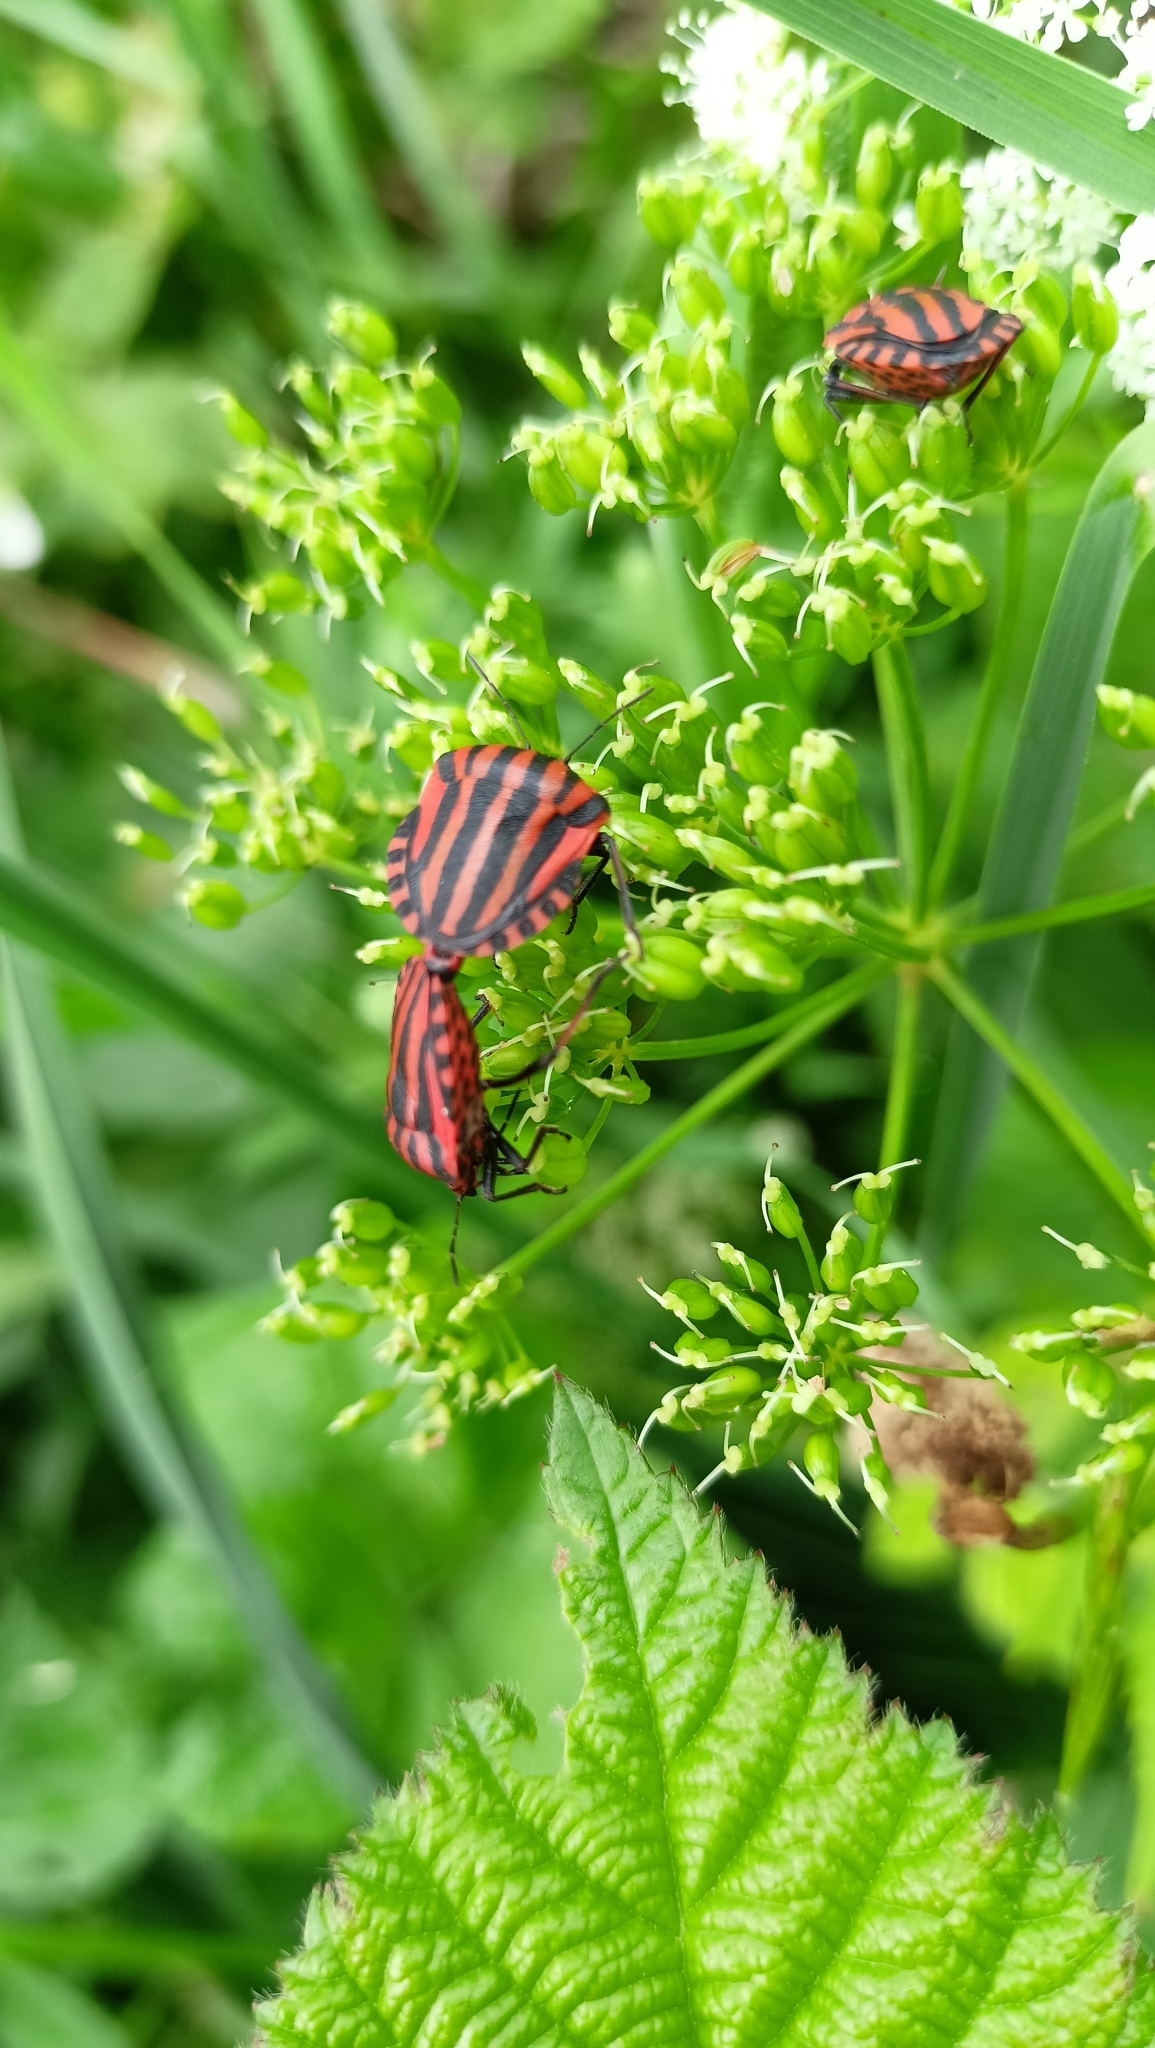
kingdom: Animalia
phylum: Arthropoda
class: Insecta
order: Hemiptera
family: Pentatomidae
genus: Graphosoma
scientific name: Graphosoma italicum
